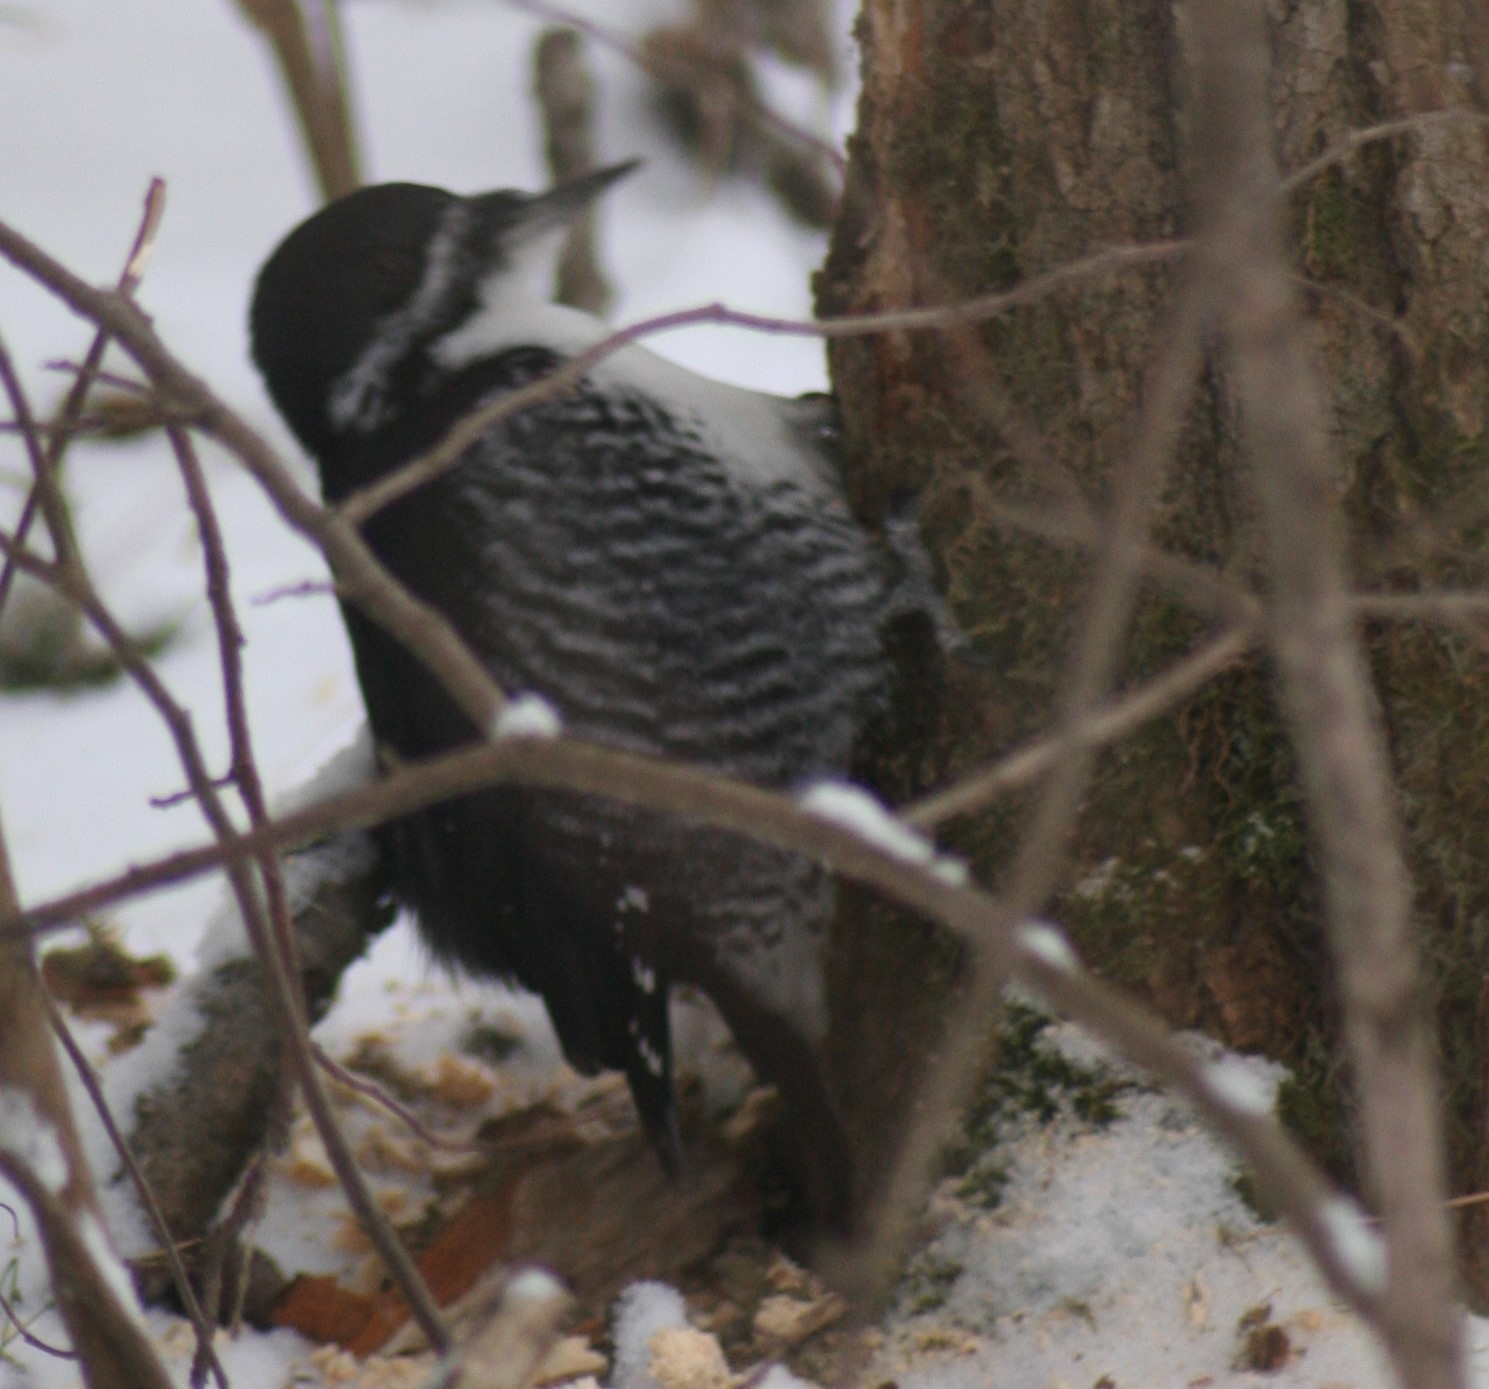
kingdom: Animalia
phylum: Chordata
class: Aves
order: Piciformes
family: Picidae
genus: Picoides
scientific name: Picoides arcticus
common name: Black-backed woodpecker
